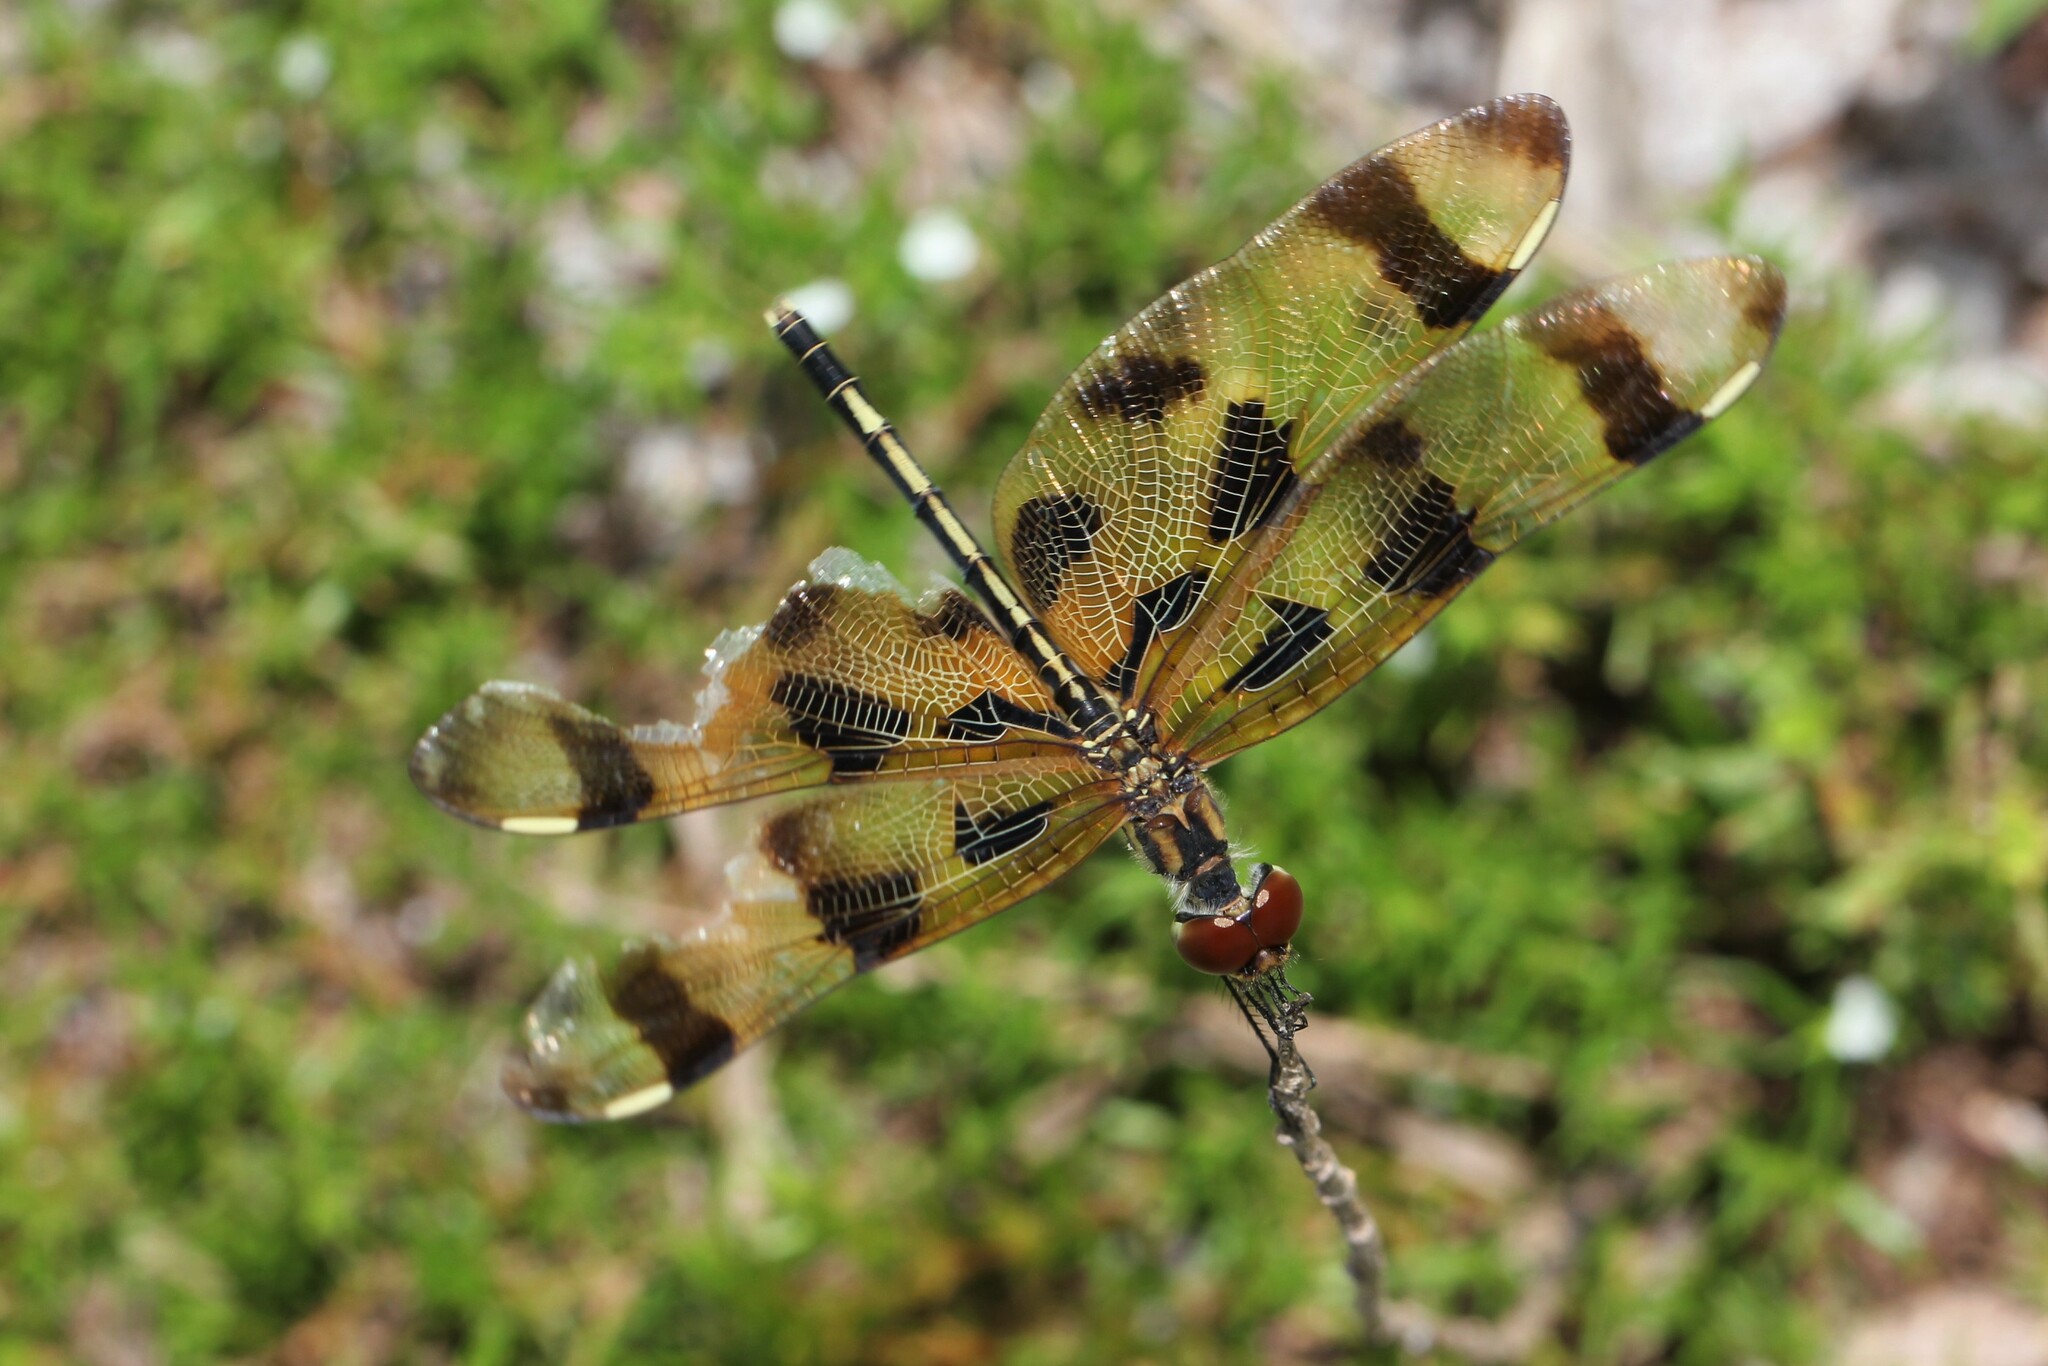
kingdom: Animalia
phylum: Arthropoda
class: Insecta
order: Odonata
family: Libellulidae
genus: Celithemis
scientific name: Celithemis eponina
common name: Halloween pennant
